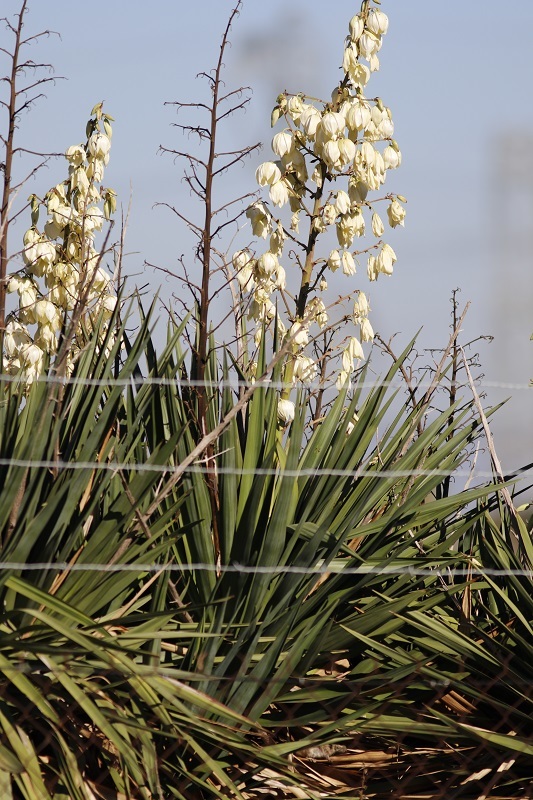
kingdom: Plantae
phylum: Tracheophyta
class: Liliopsida
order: Asparagales
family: Asparagaceae
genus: Yucca
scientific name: Yucca gloriosa
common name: Spanish-dagger
